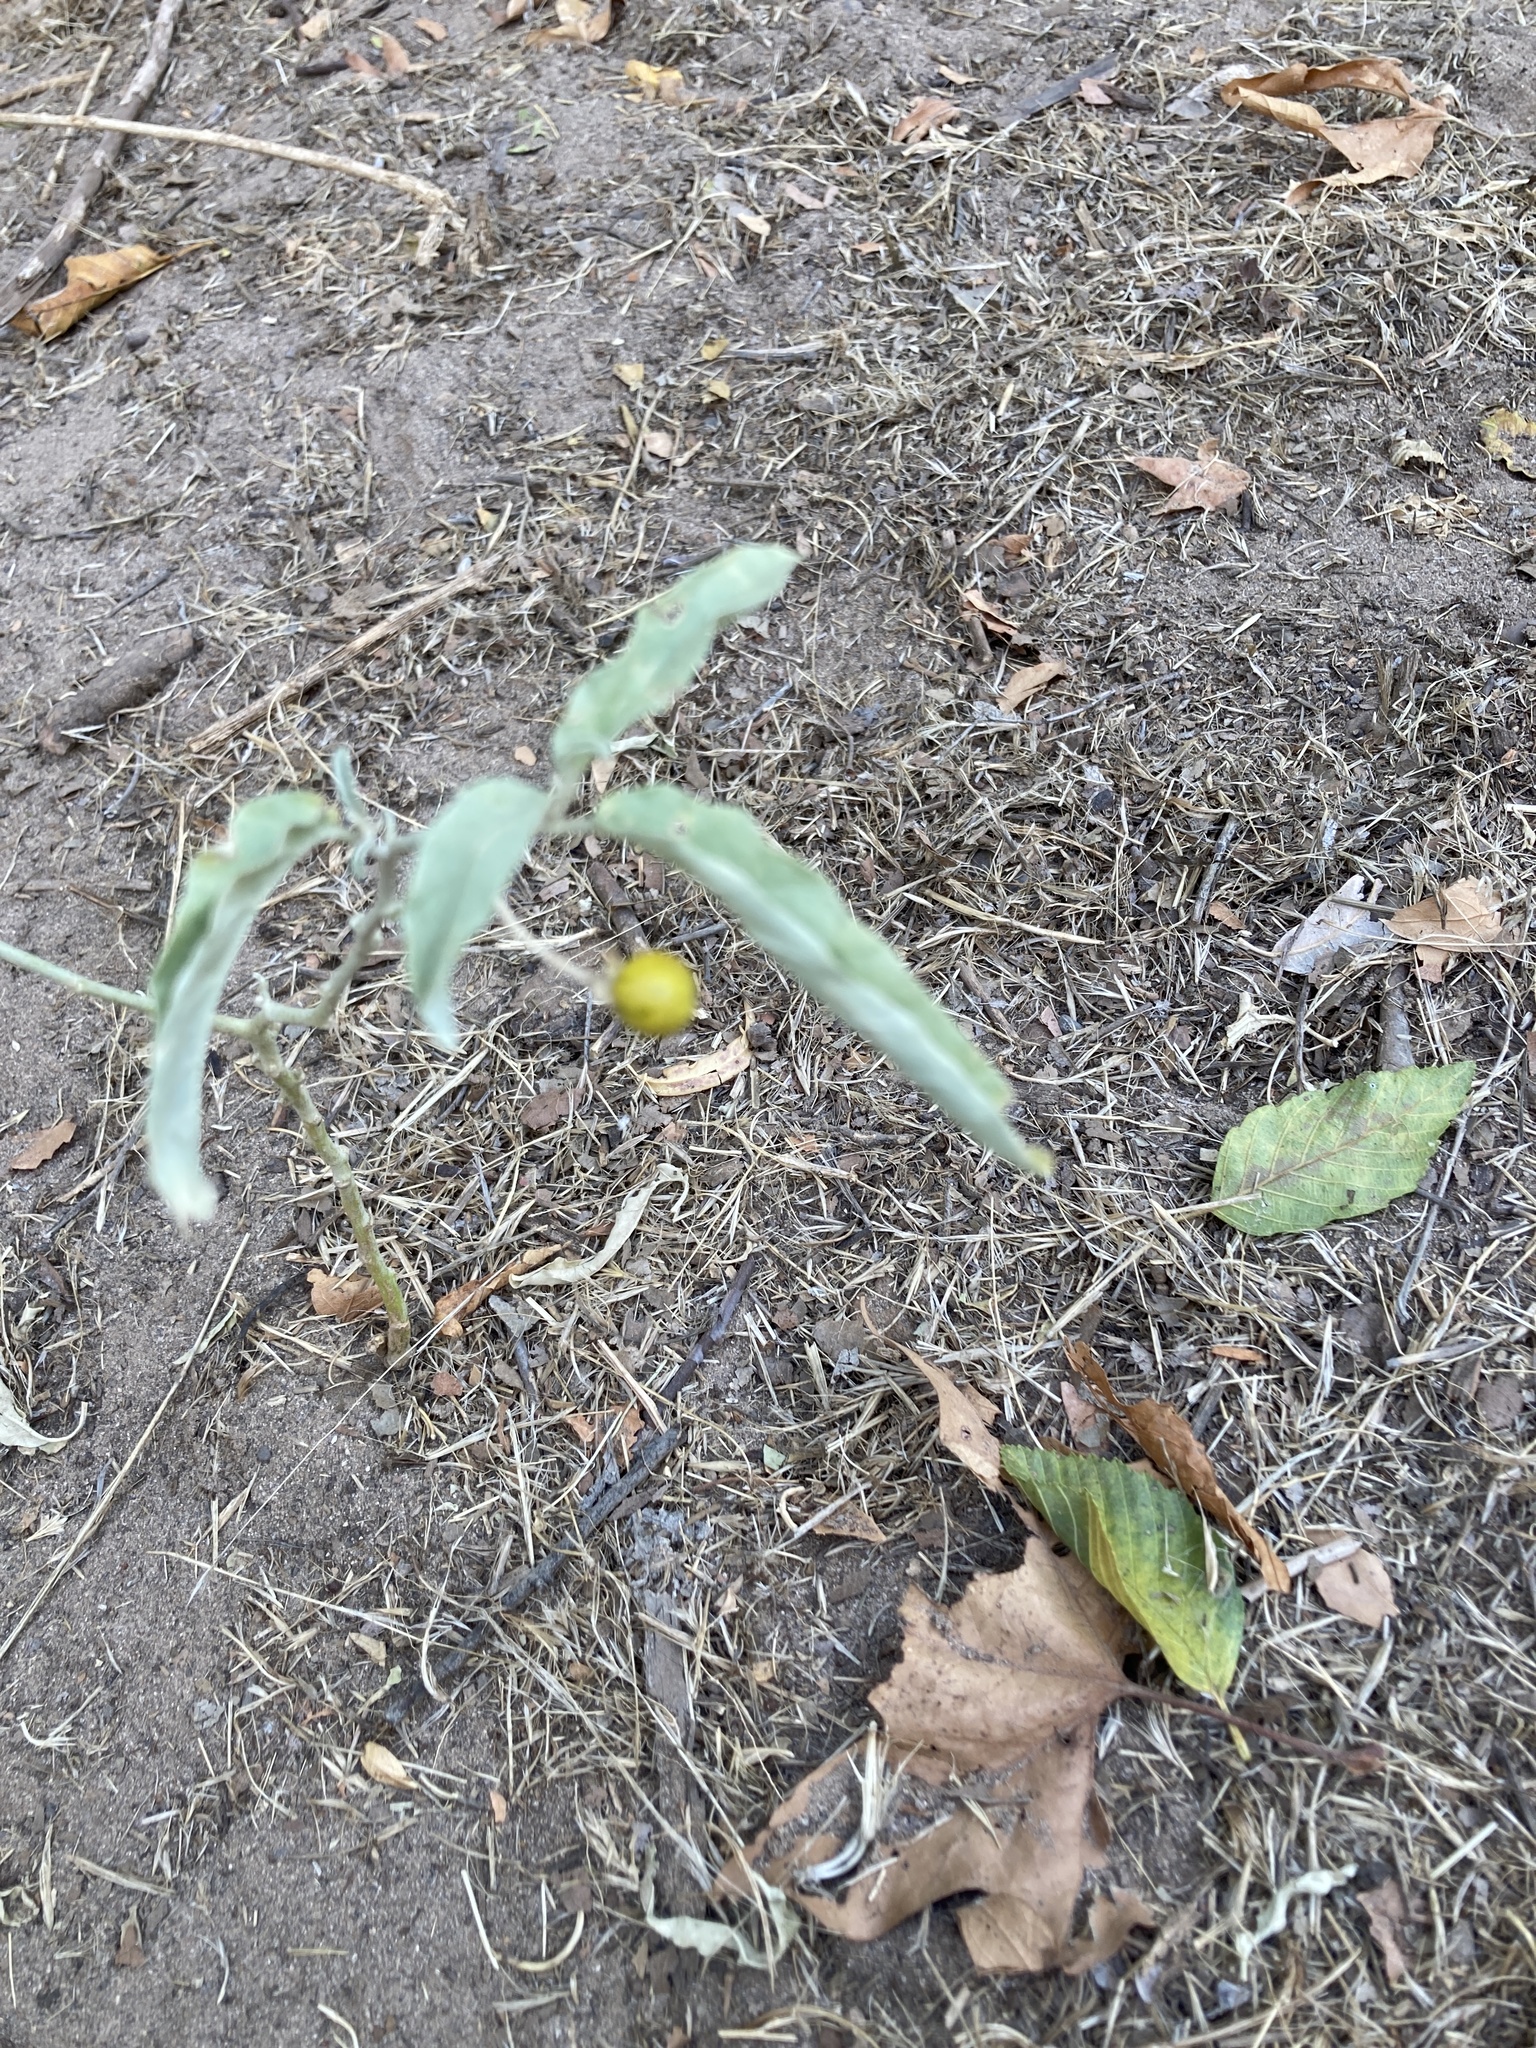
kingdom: Plantae
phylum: Tracheophyta
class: Magnoliopsida
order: Solanales
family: Solanaceae
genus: Solanum
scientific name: Solanum elaeagnifolium
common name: Silverleaf nightshade
